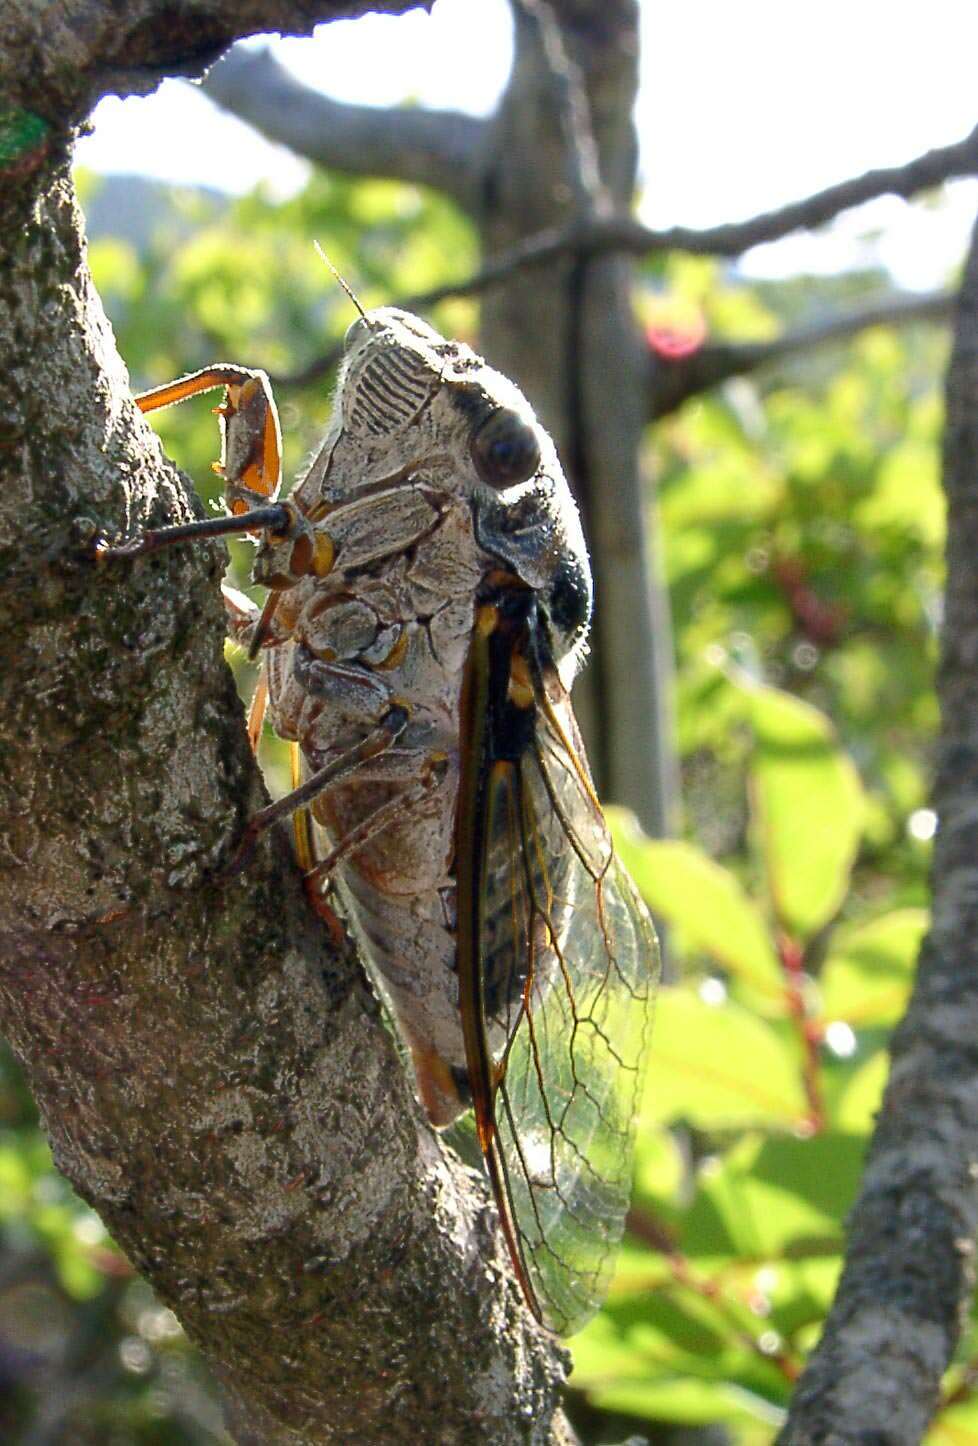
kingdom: Animalia
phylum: Arthropoda
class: Insecta
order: Hemiptera
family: Cicadidae
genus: Lyristes
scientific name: Lyristes plebejus
